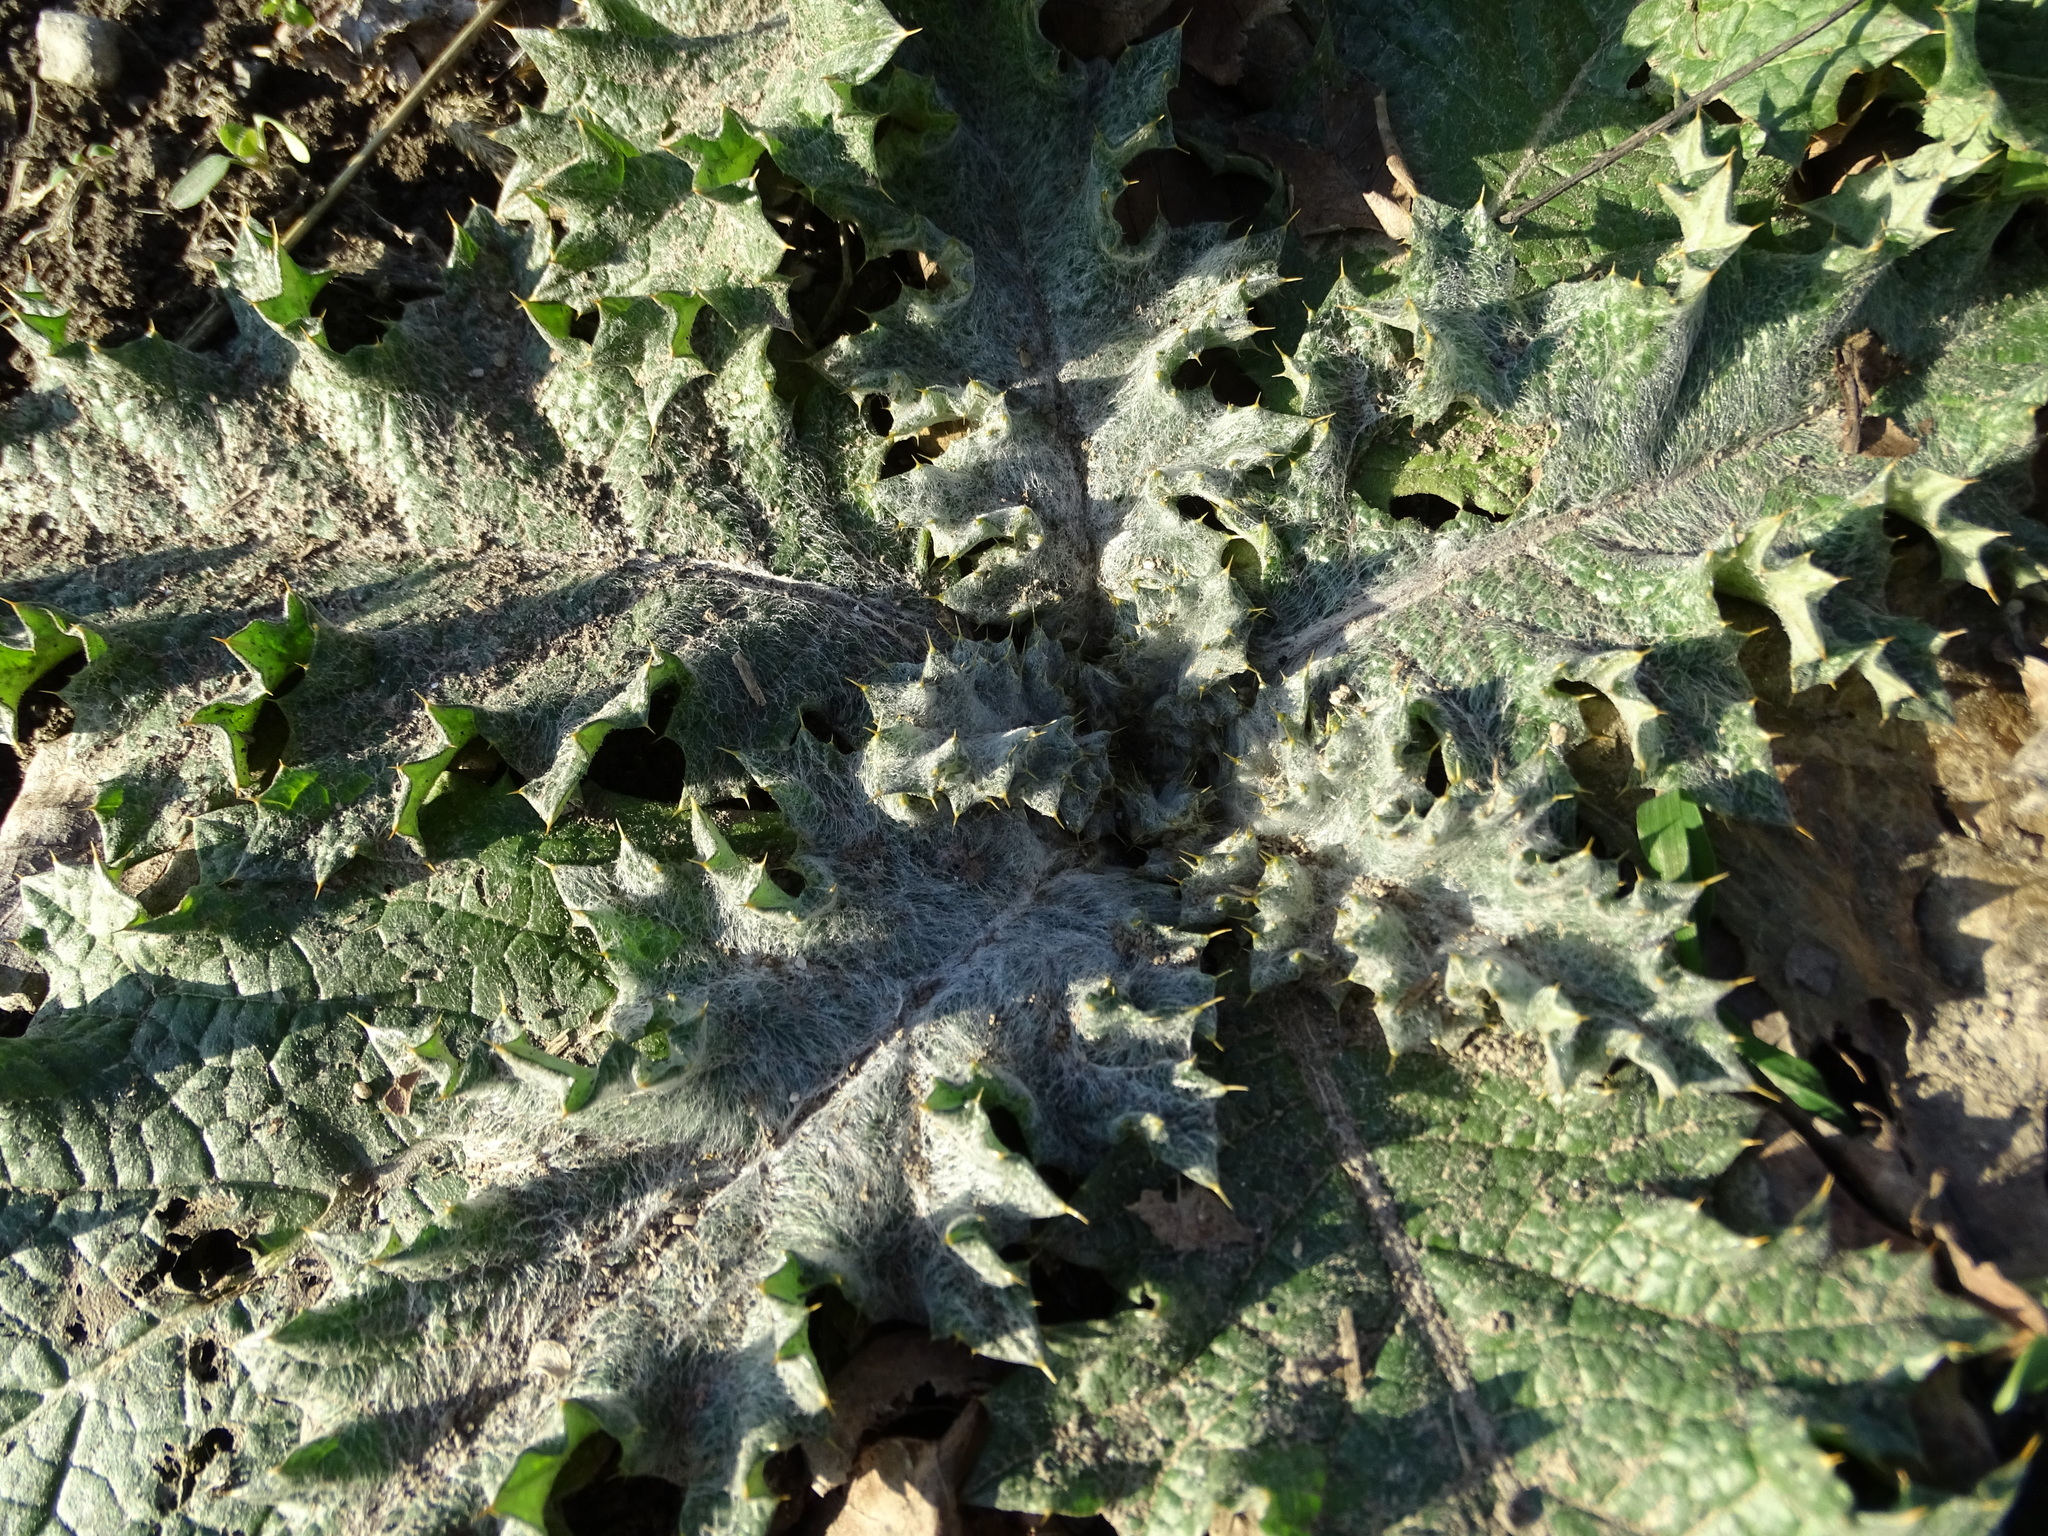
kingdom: Plantae
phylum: Tracheophyta
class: Magnoliopsida
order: Asterales
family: Asteraceae
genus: Onopordum
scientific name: Onopordum acanthium
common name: Scotch thistle
